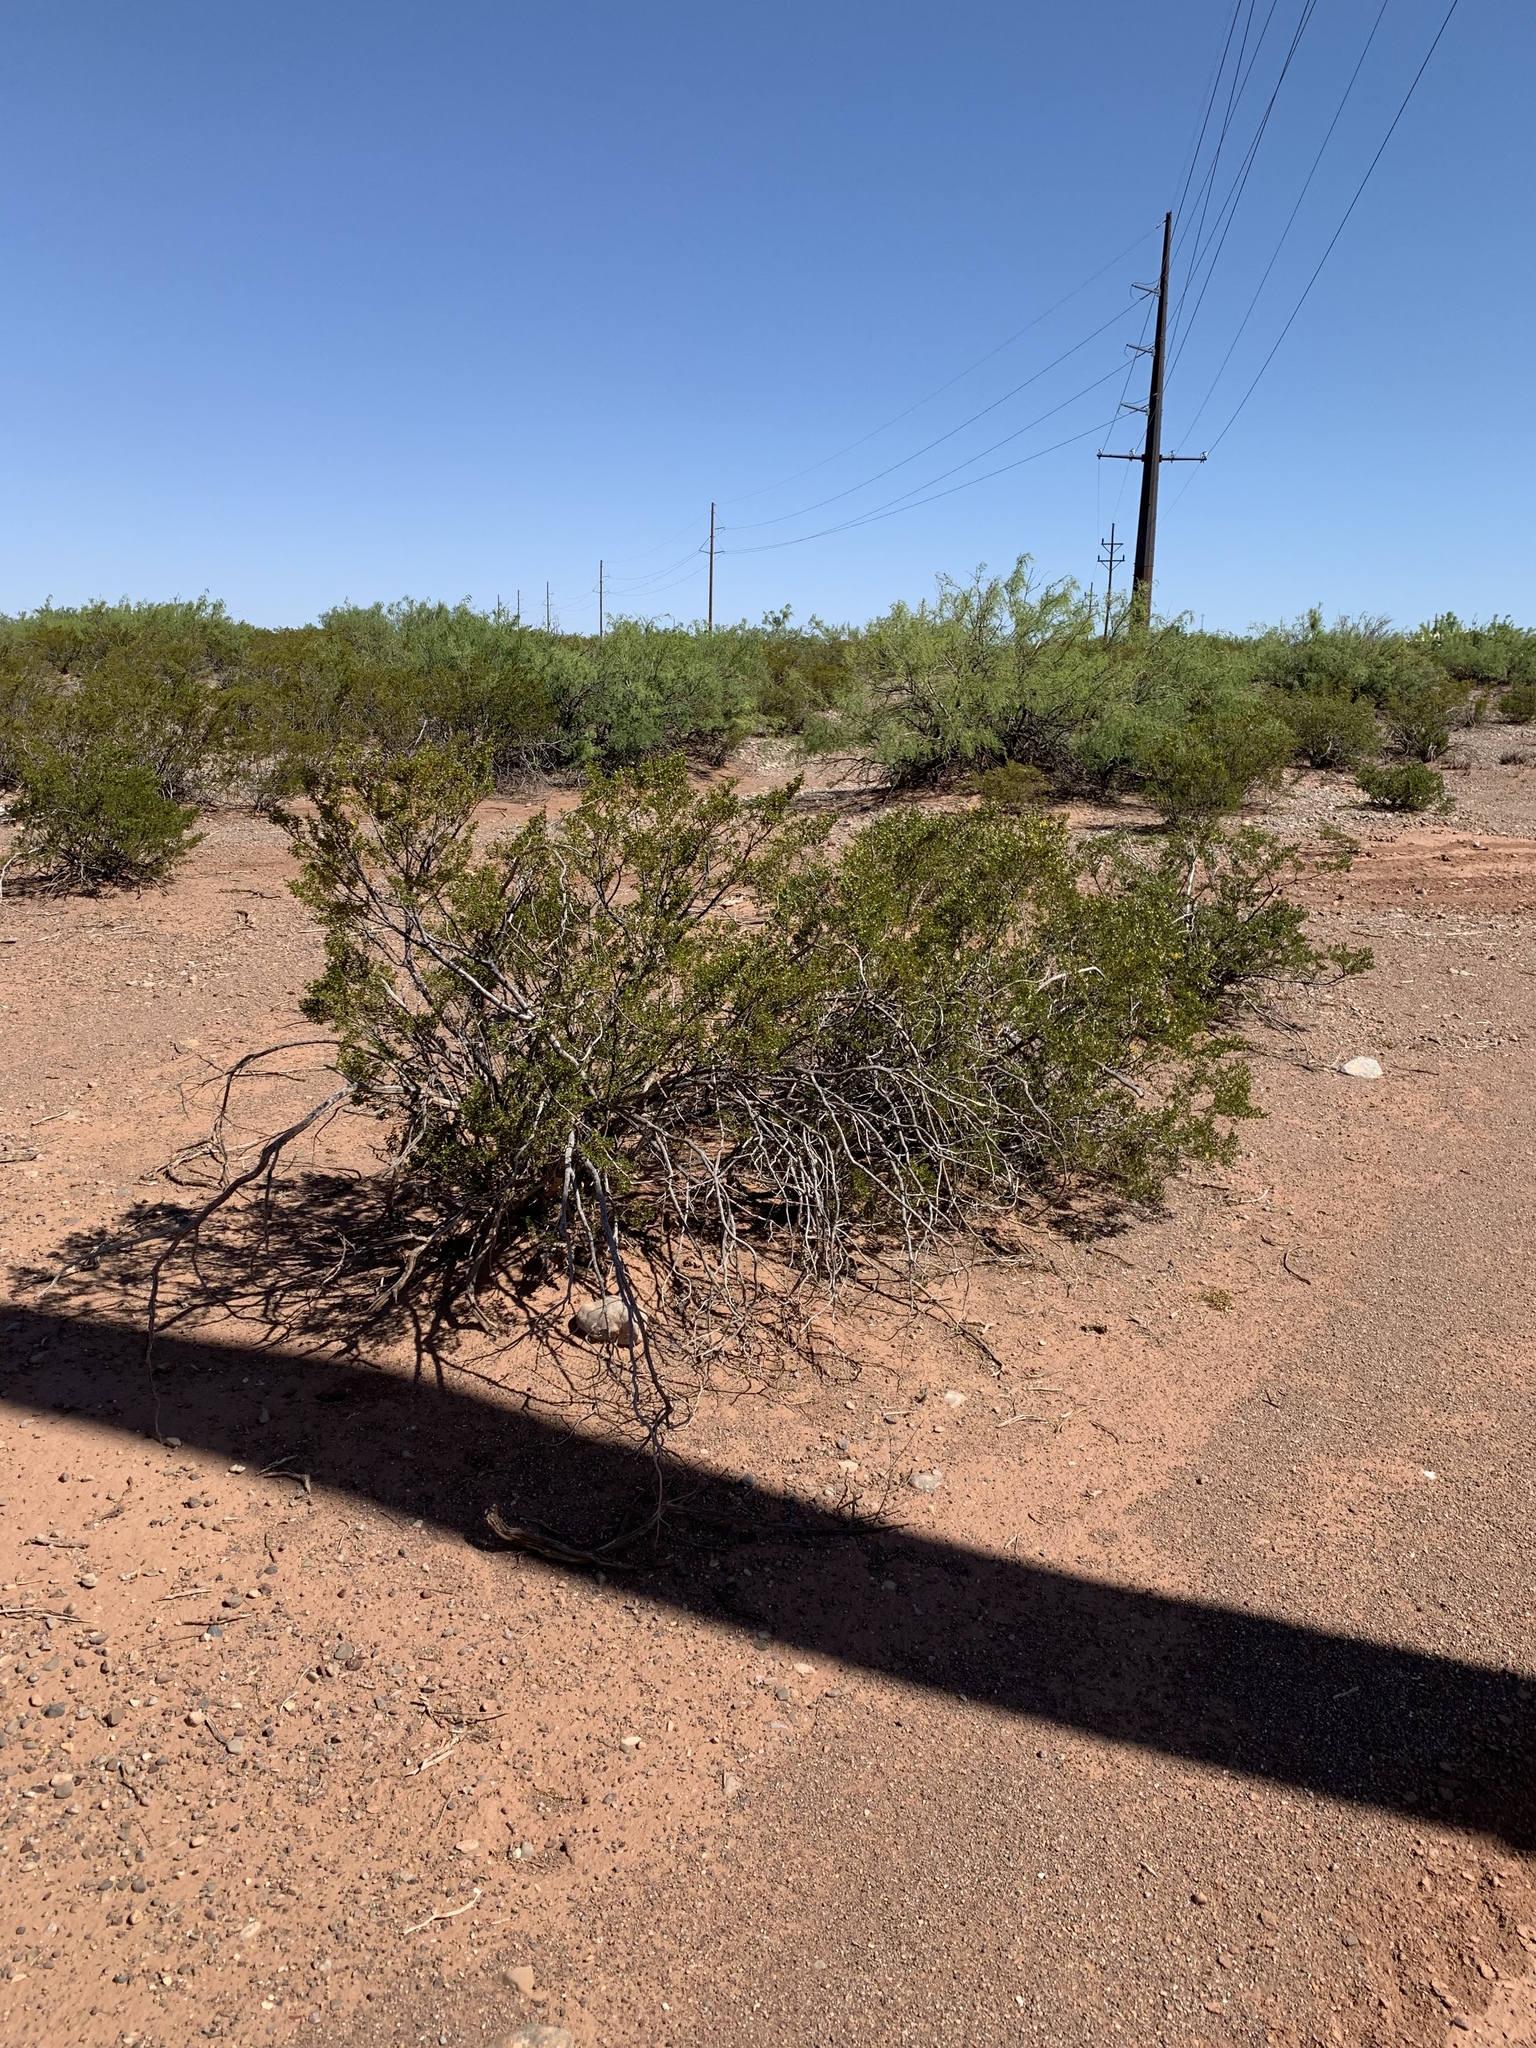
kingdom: Plantae
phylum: Tracheophyta
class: Magnoliopsida
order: Zygophyllales
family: Zygophyllaceae
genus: Larrea
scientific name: Larrea tridentata
